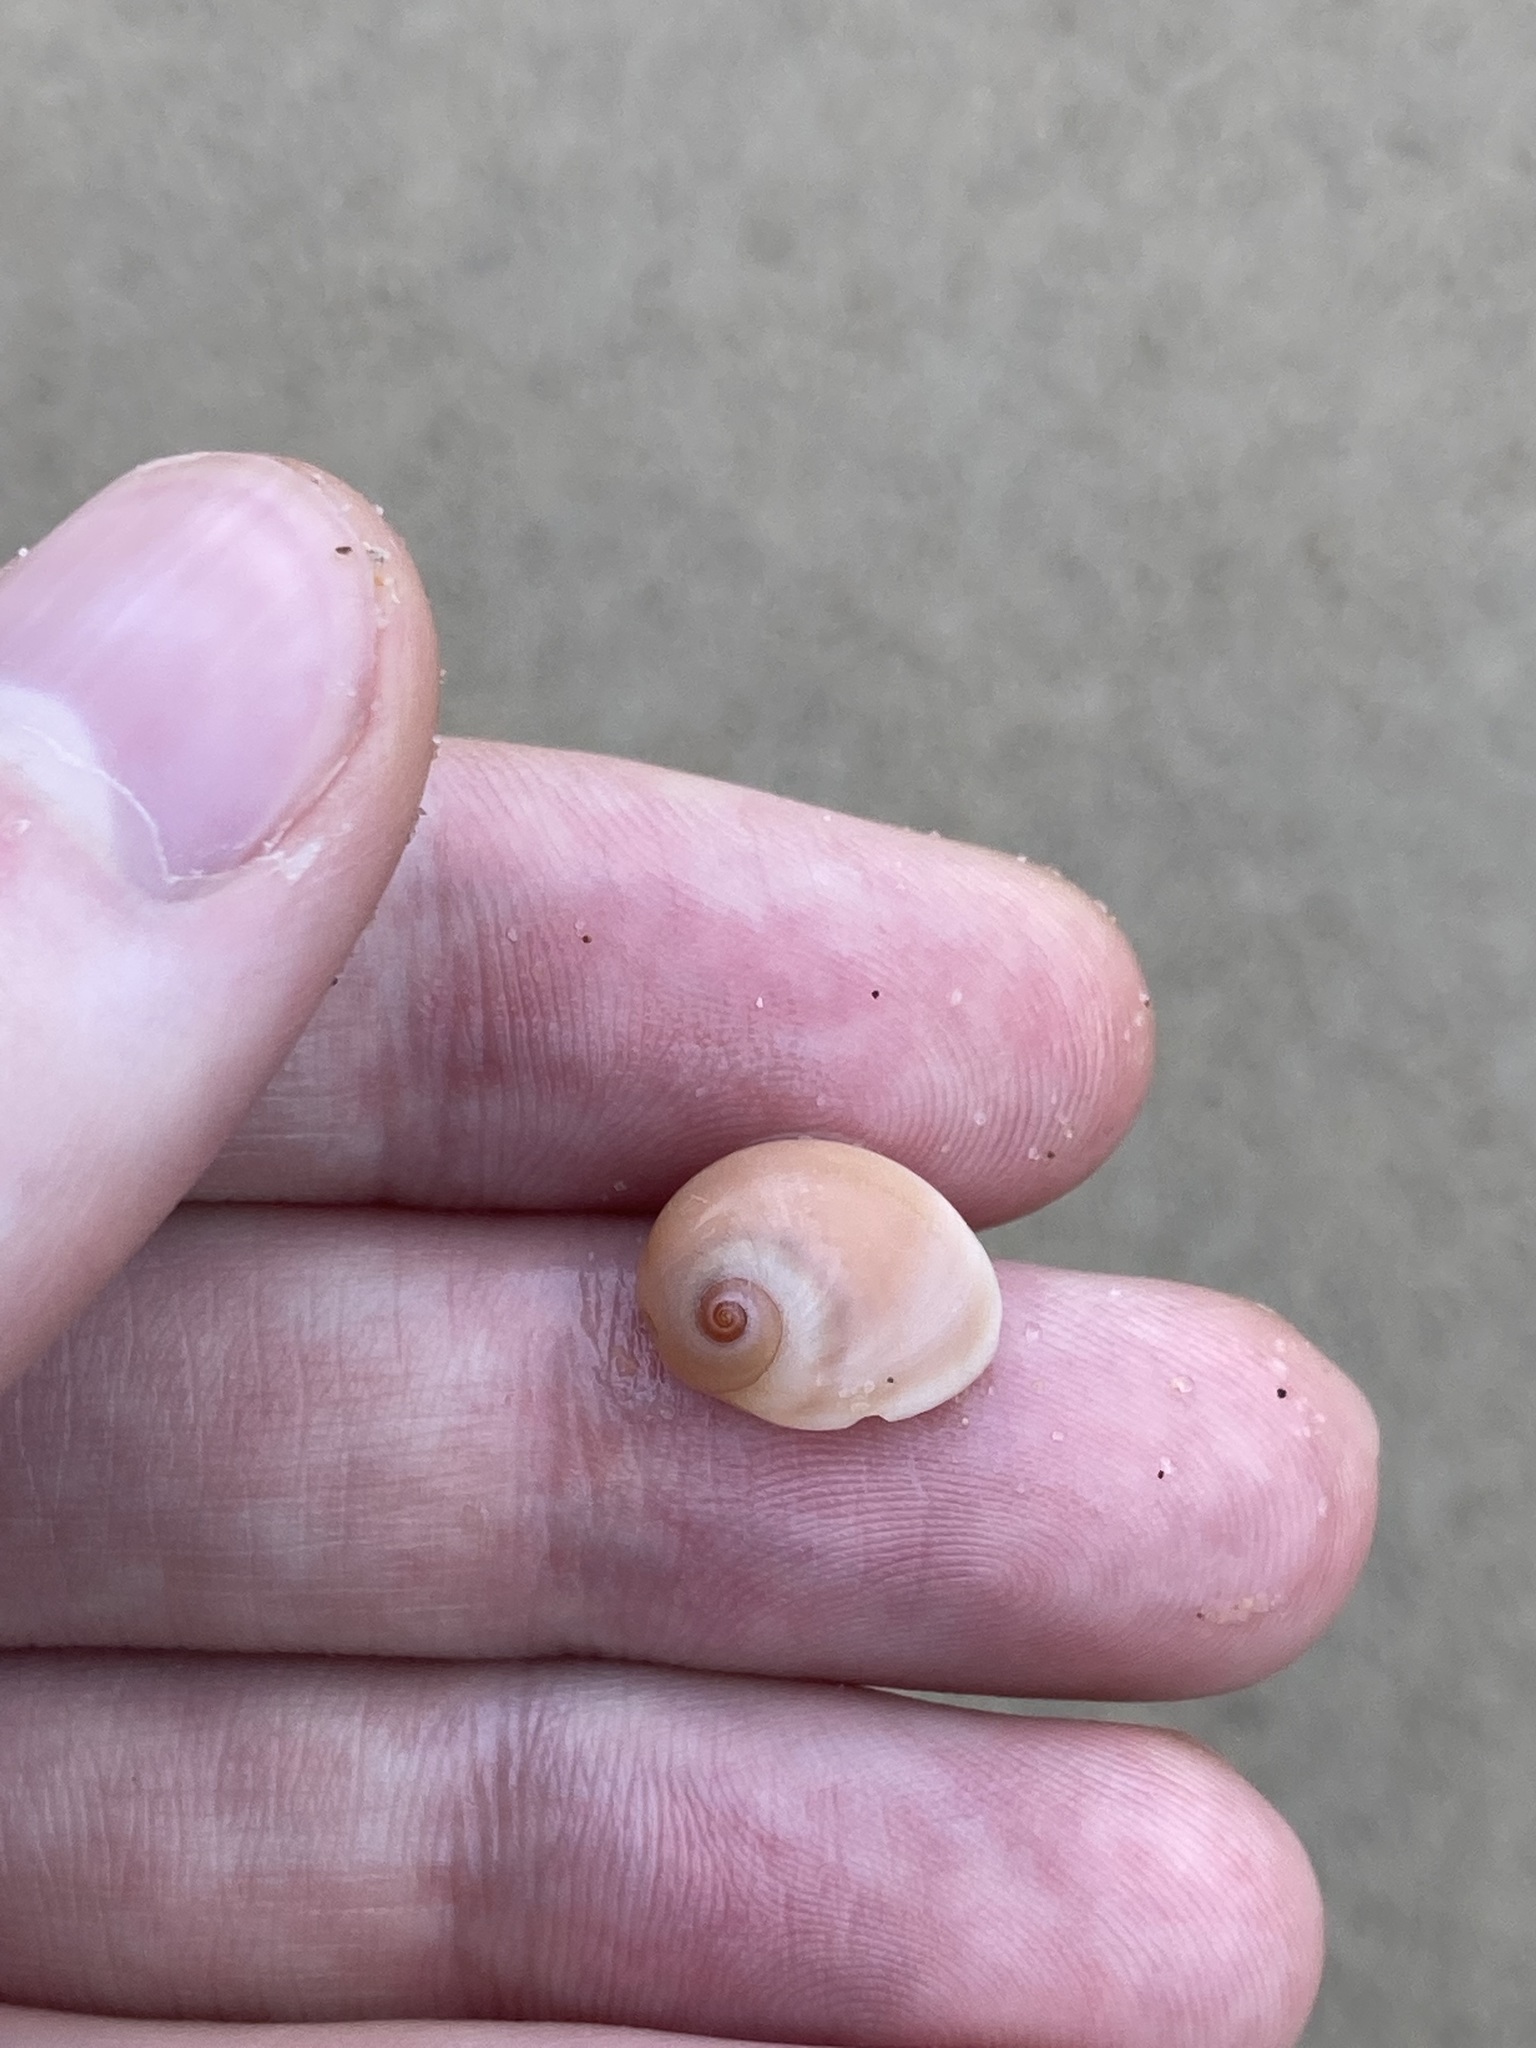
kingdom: Animalia
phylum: Mollusca
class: Gastropoda
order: Littorinimorpha
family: Naticidae
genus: Conuber
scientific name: Conuber incei
